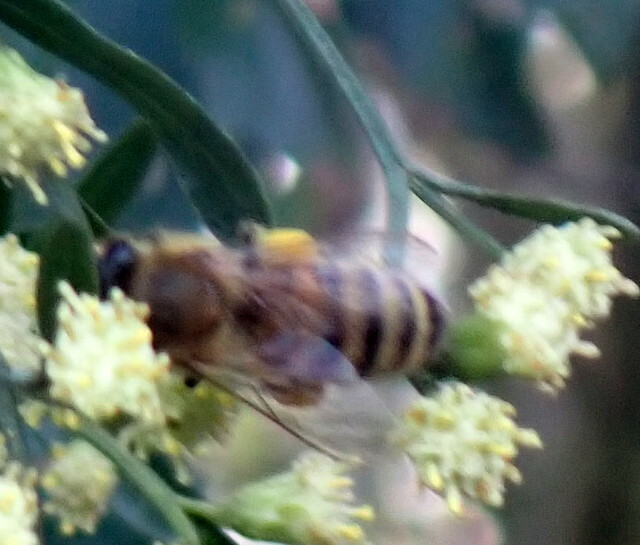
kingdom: Animalia
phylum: Arthropoda
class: Insecta
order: Hymenoptera
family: Apidae
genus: Apis
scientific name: Apis mellifera
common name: Honey bee
